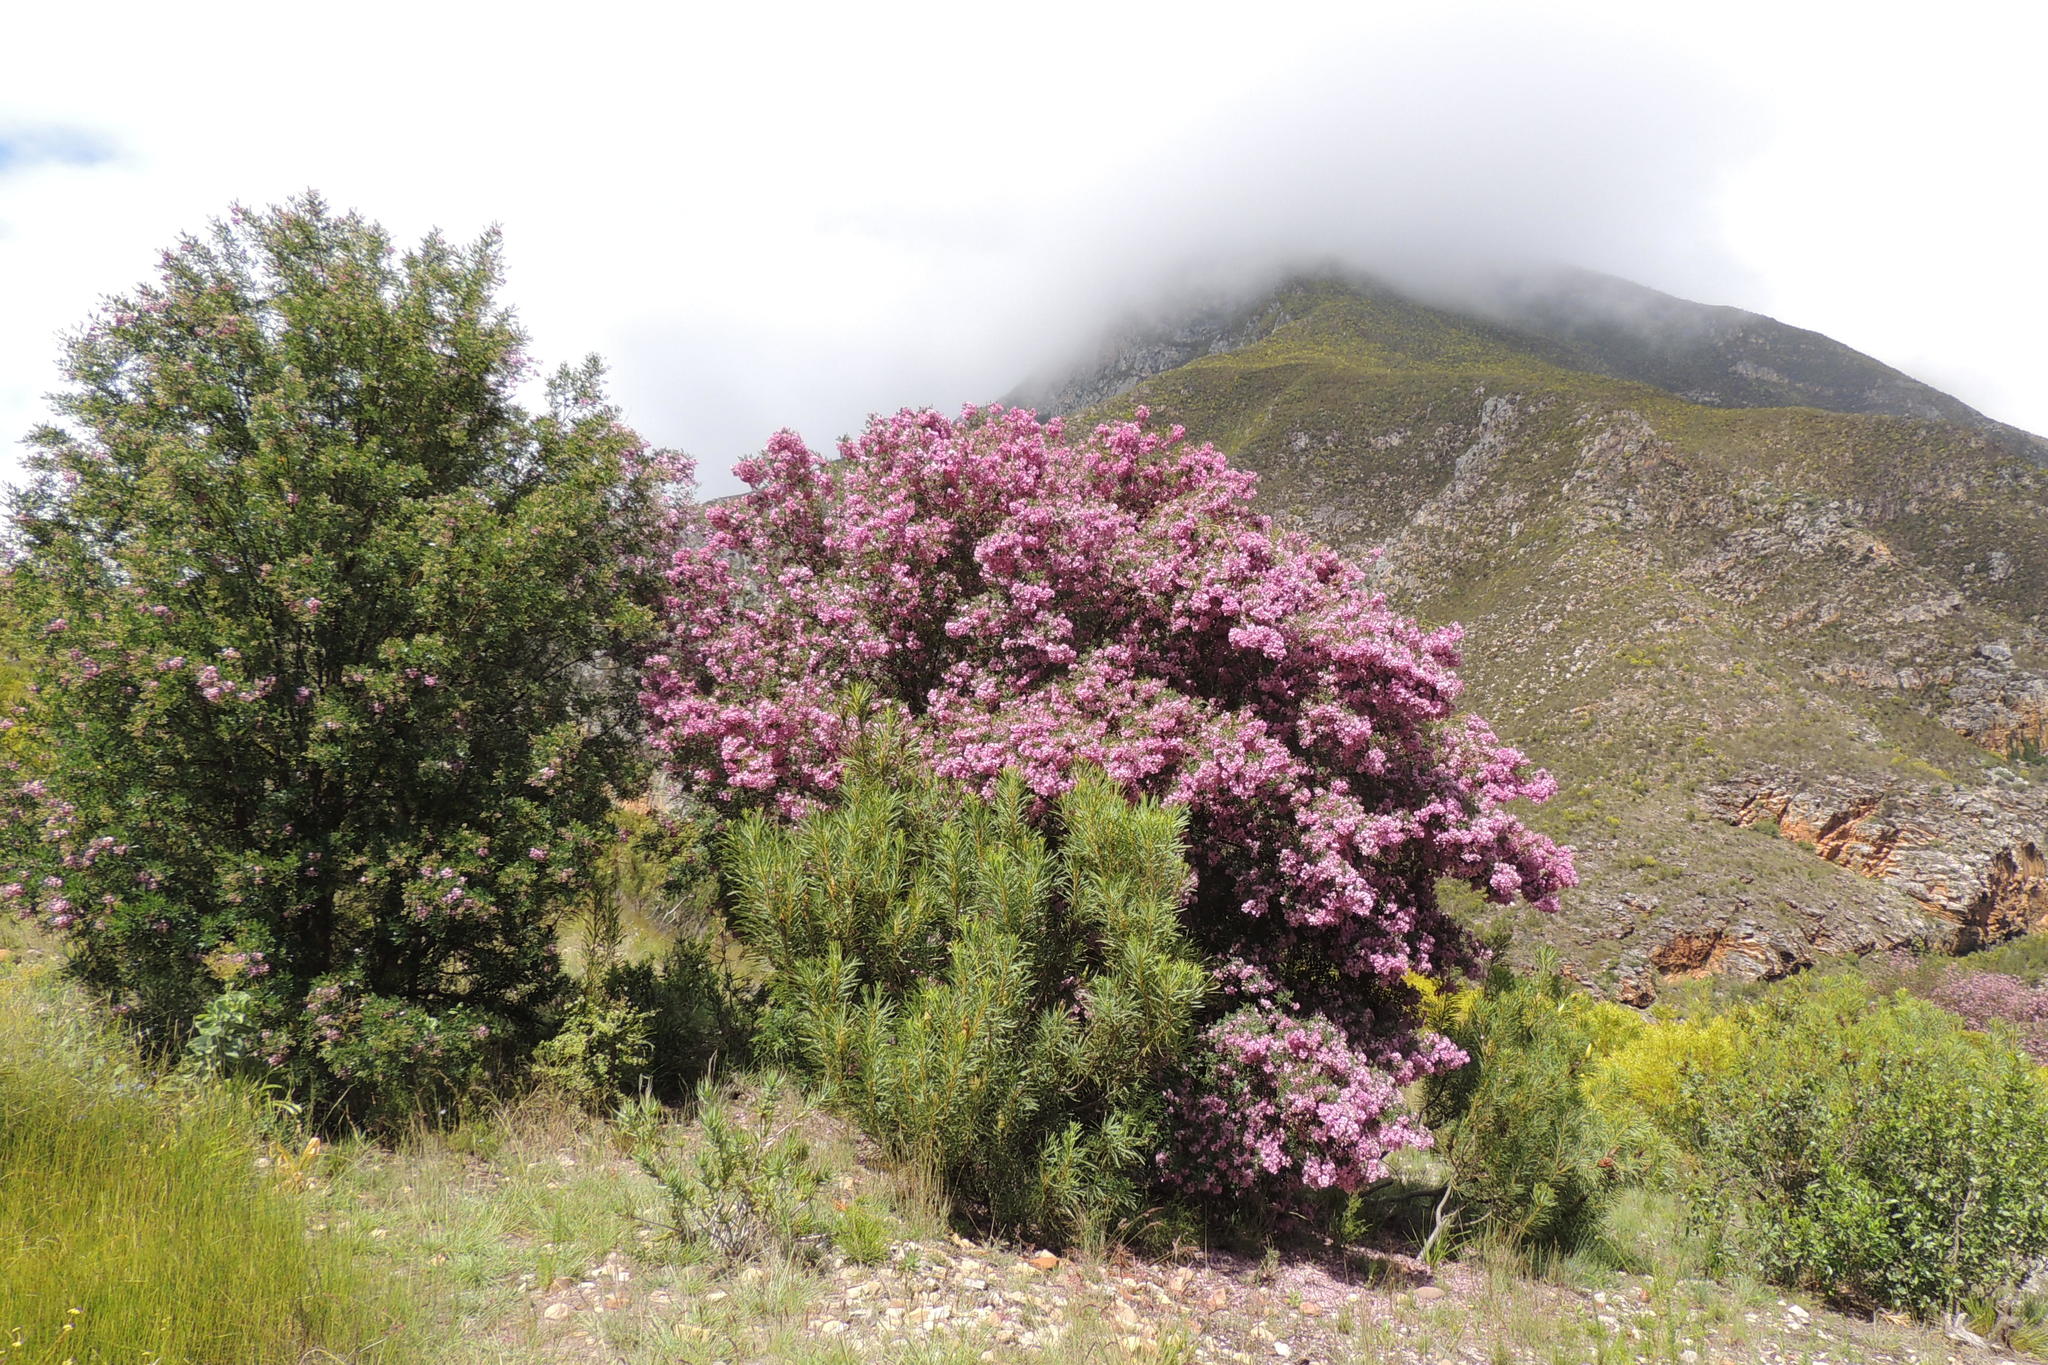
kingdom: Plantae
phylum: Tracheophyta
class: Magnoliopsida
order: Fabales
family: Fabaceae
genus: Virgilia
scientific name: Virgilia divaricata
